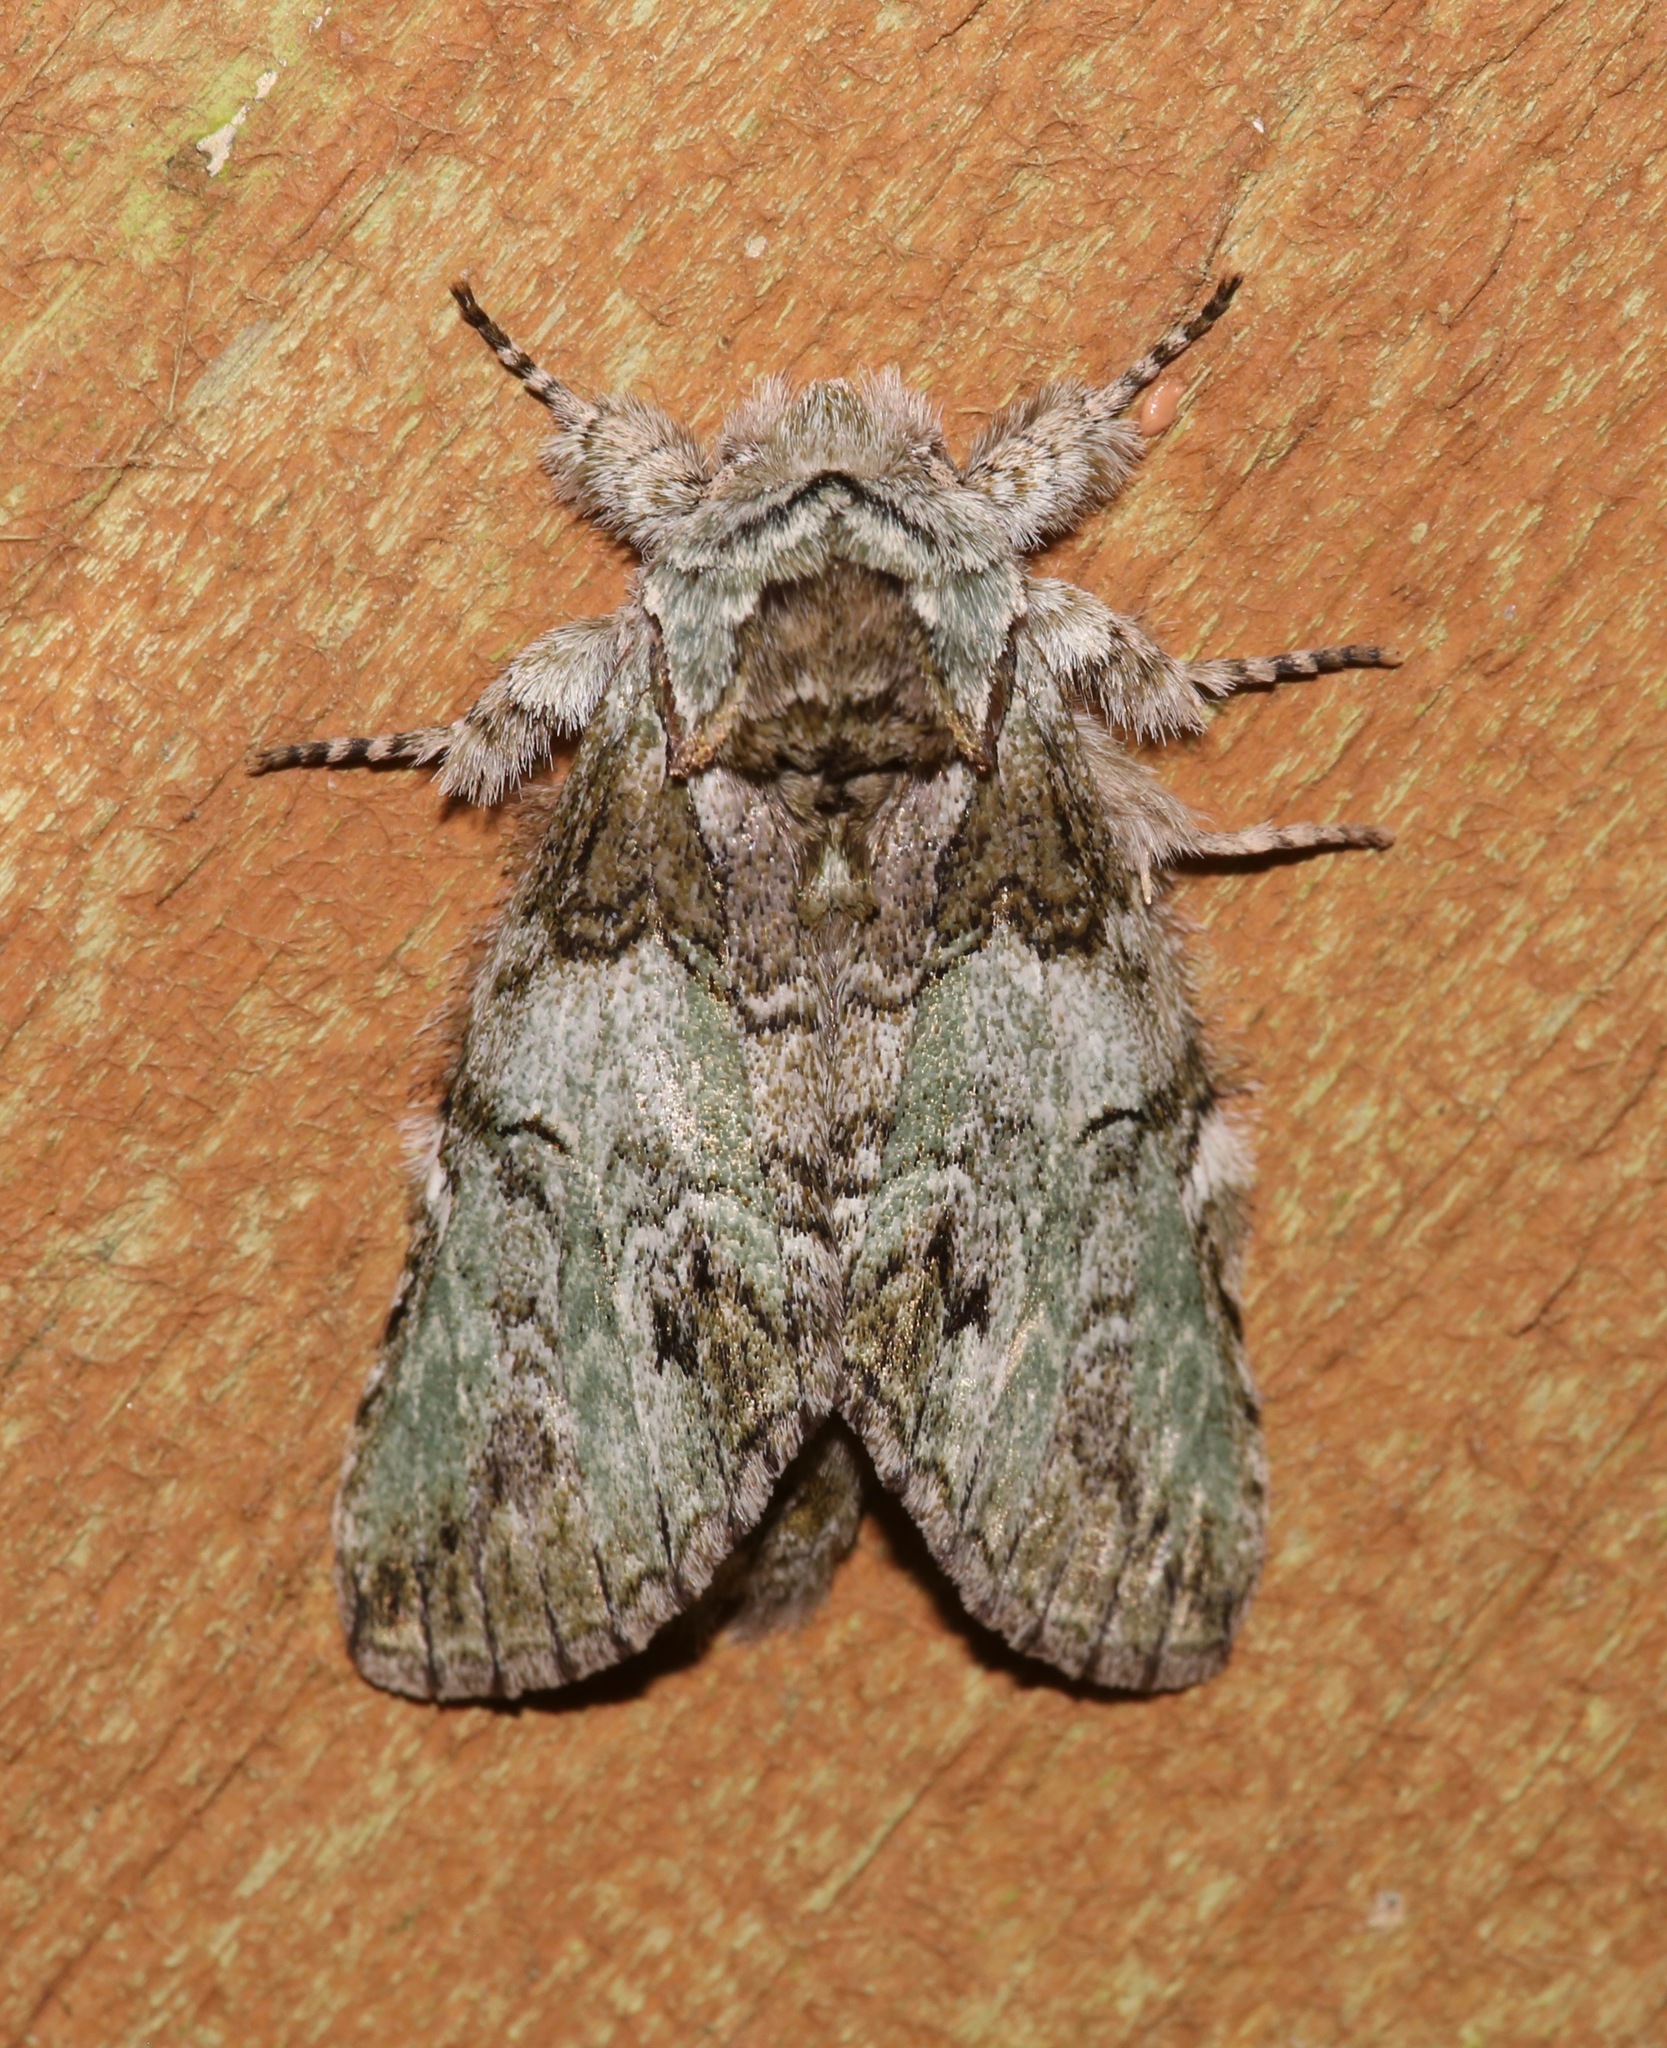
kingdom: Animalia
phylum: Arthropoda
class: Insecta
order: Lepidoptera
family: Notodontidae
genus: Macrurocampa
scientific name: Macrurocampa marthesia
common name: Mottled prominent
